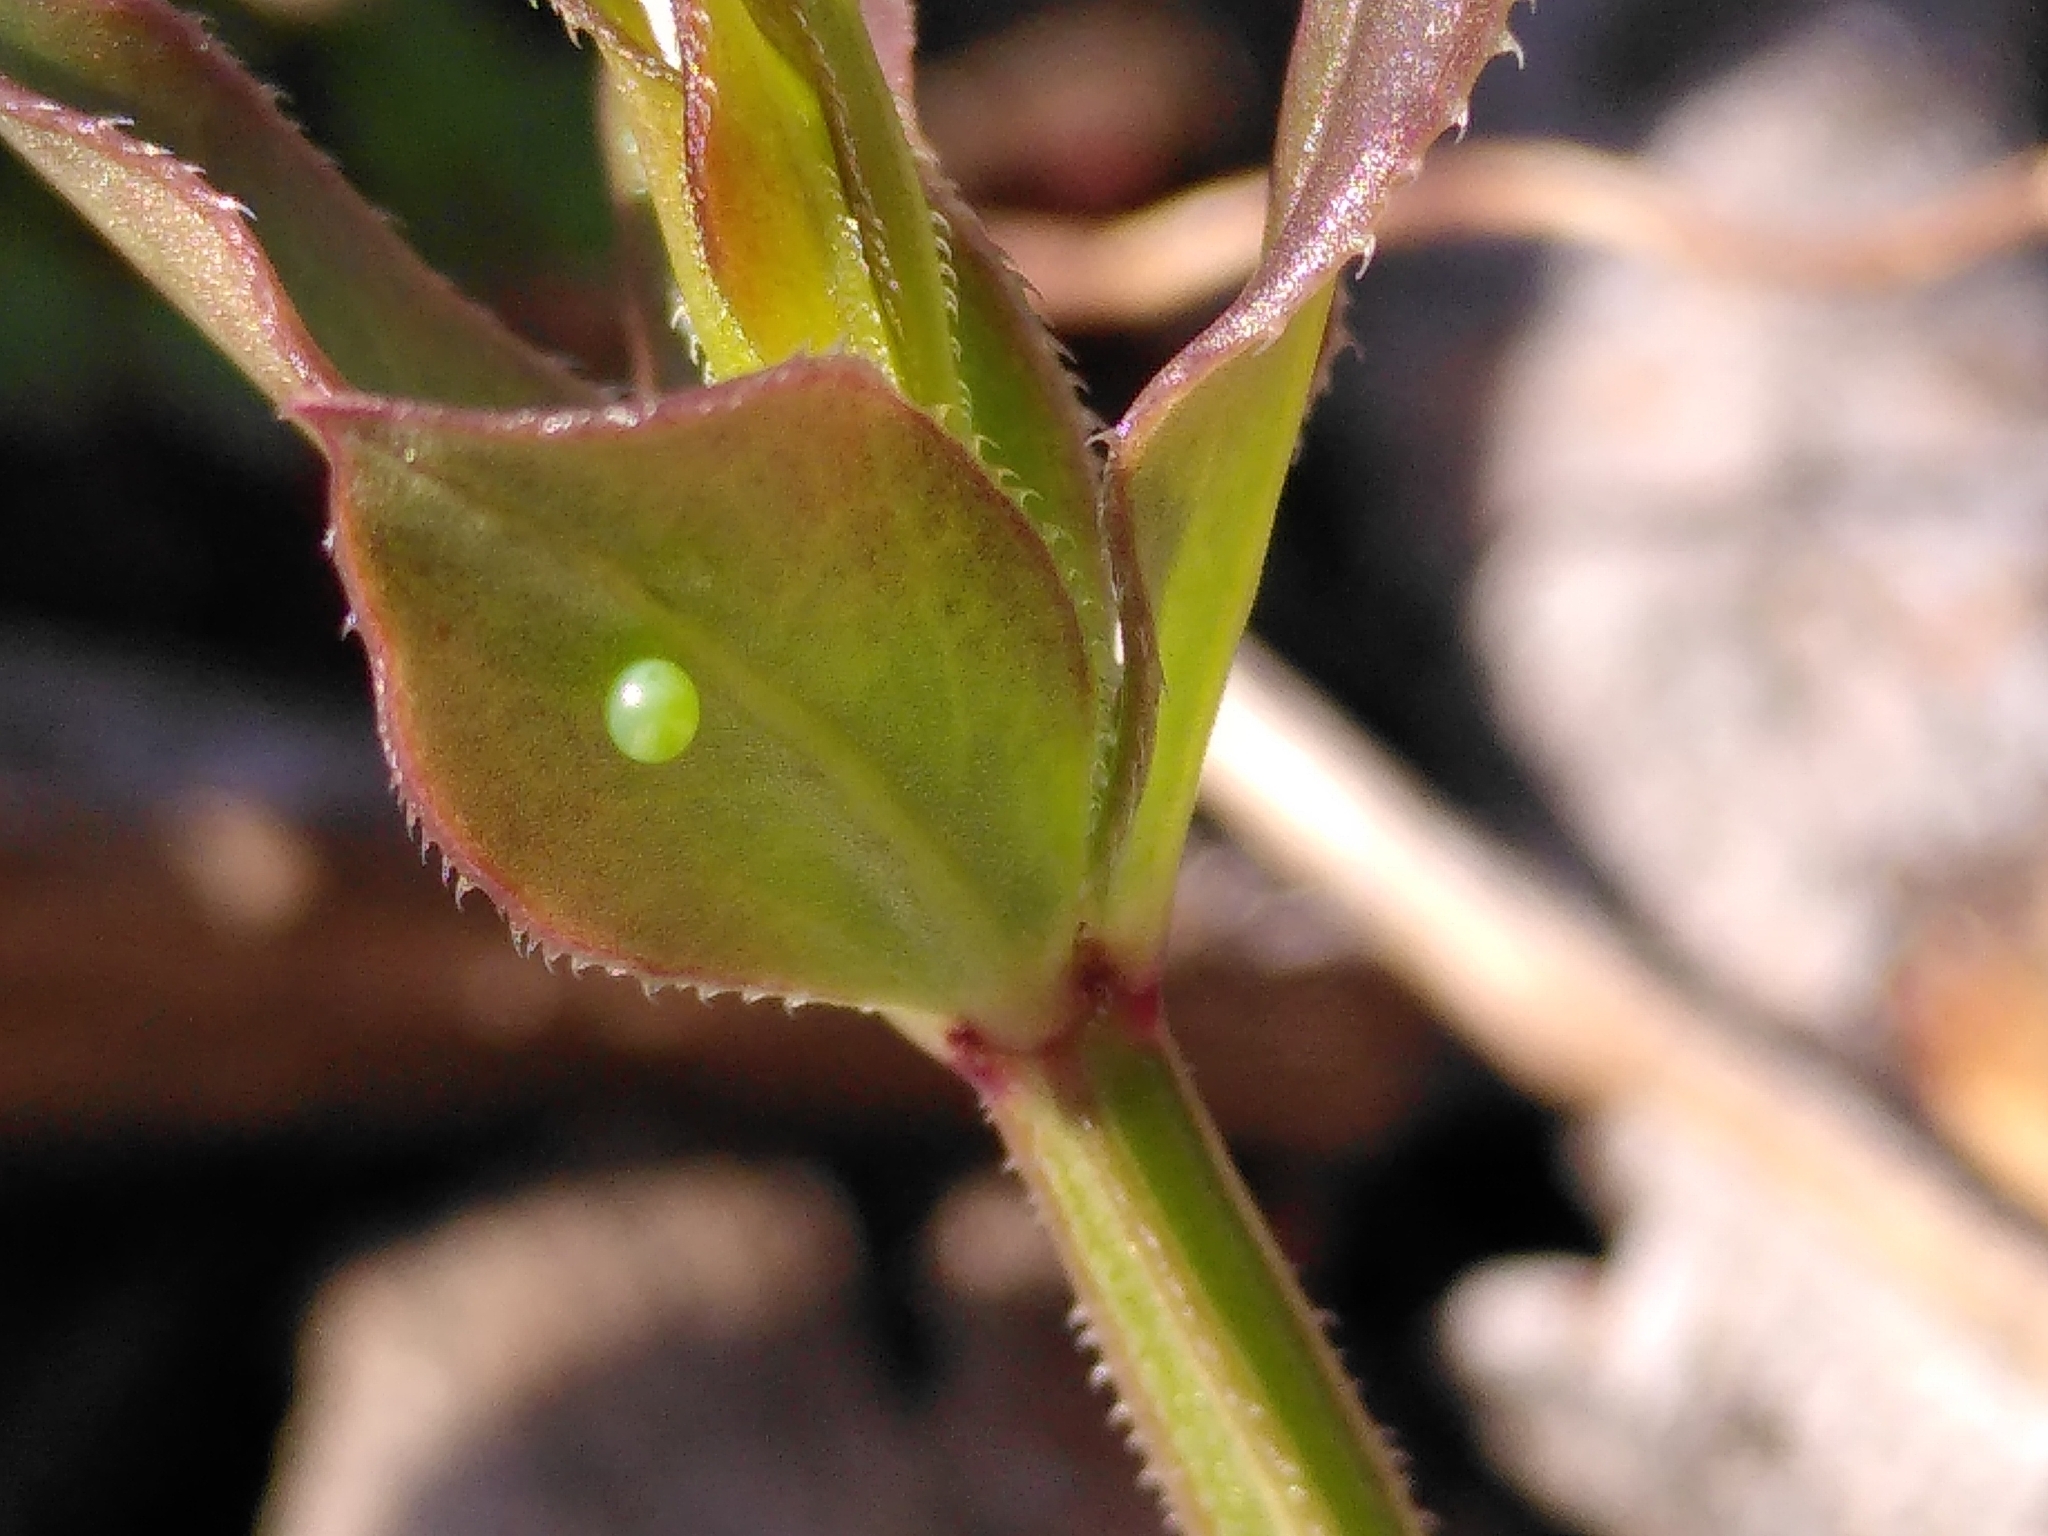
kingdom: Animalia
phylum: Arthropoda
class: Insecta
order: Lepidoptera
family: Sphingidae
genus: Macroglossum
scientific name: Macroglossum stellatarum
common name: Humming-bird hawk-moth
